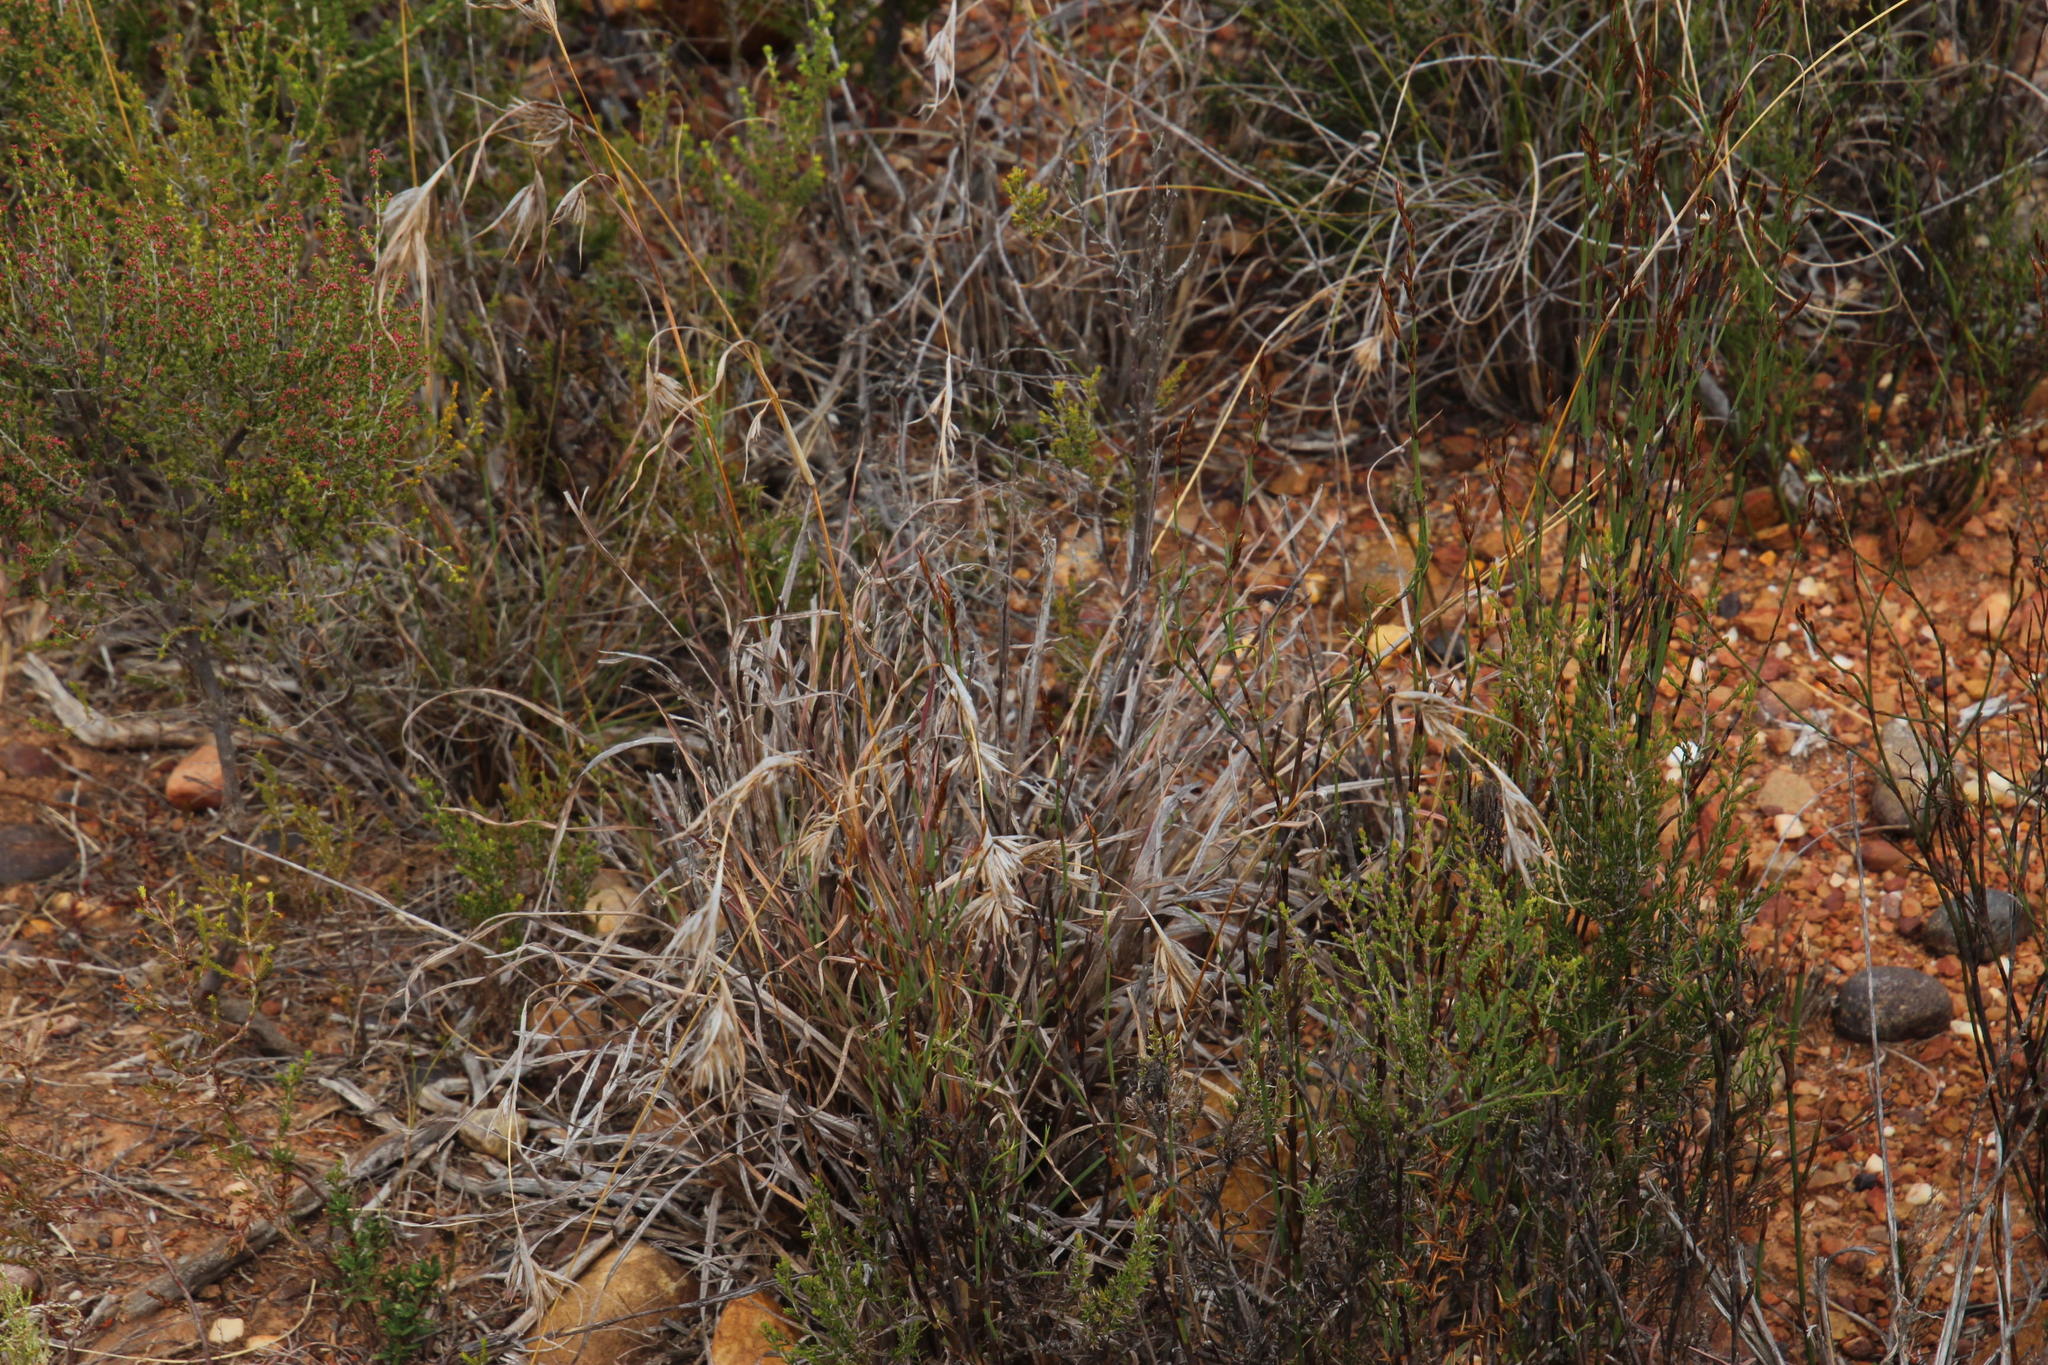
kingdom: Plantae
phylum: Tracheophyta
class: Liliopsida
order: Poales
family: Poaceae
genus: Themeda
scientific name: Themeda triandra
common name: Kangaroo grass
